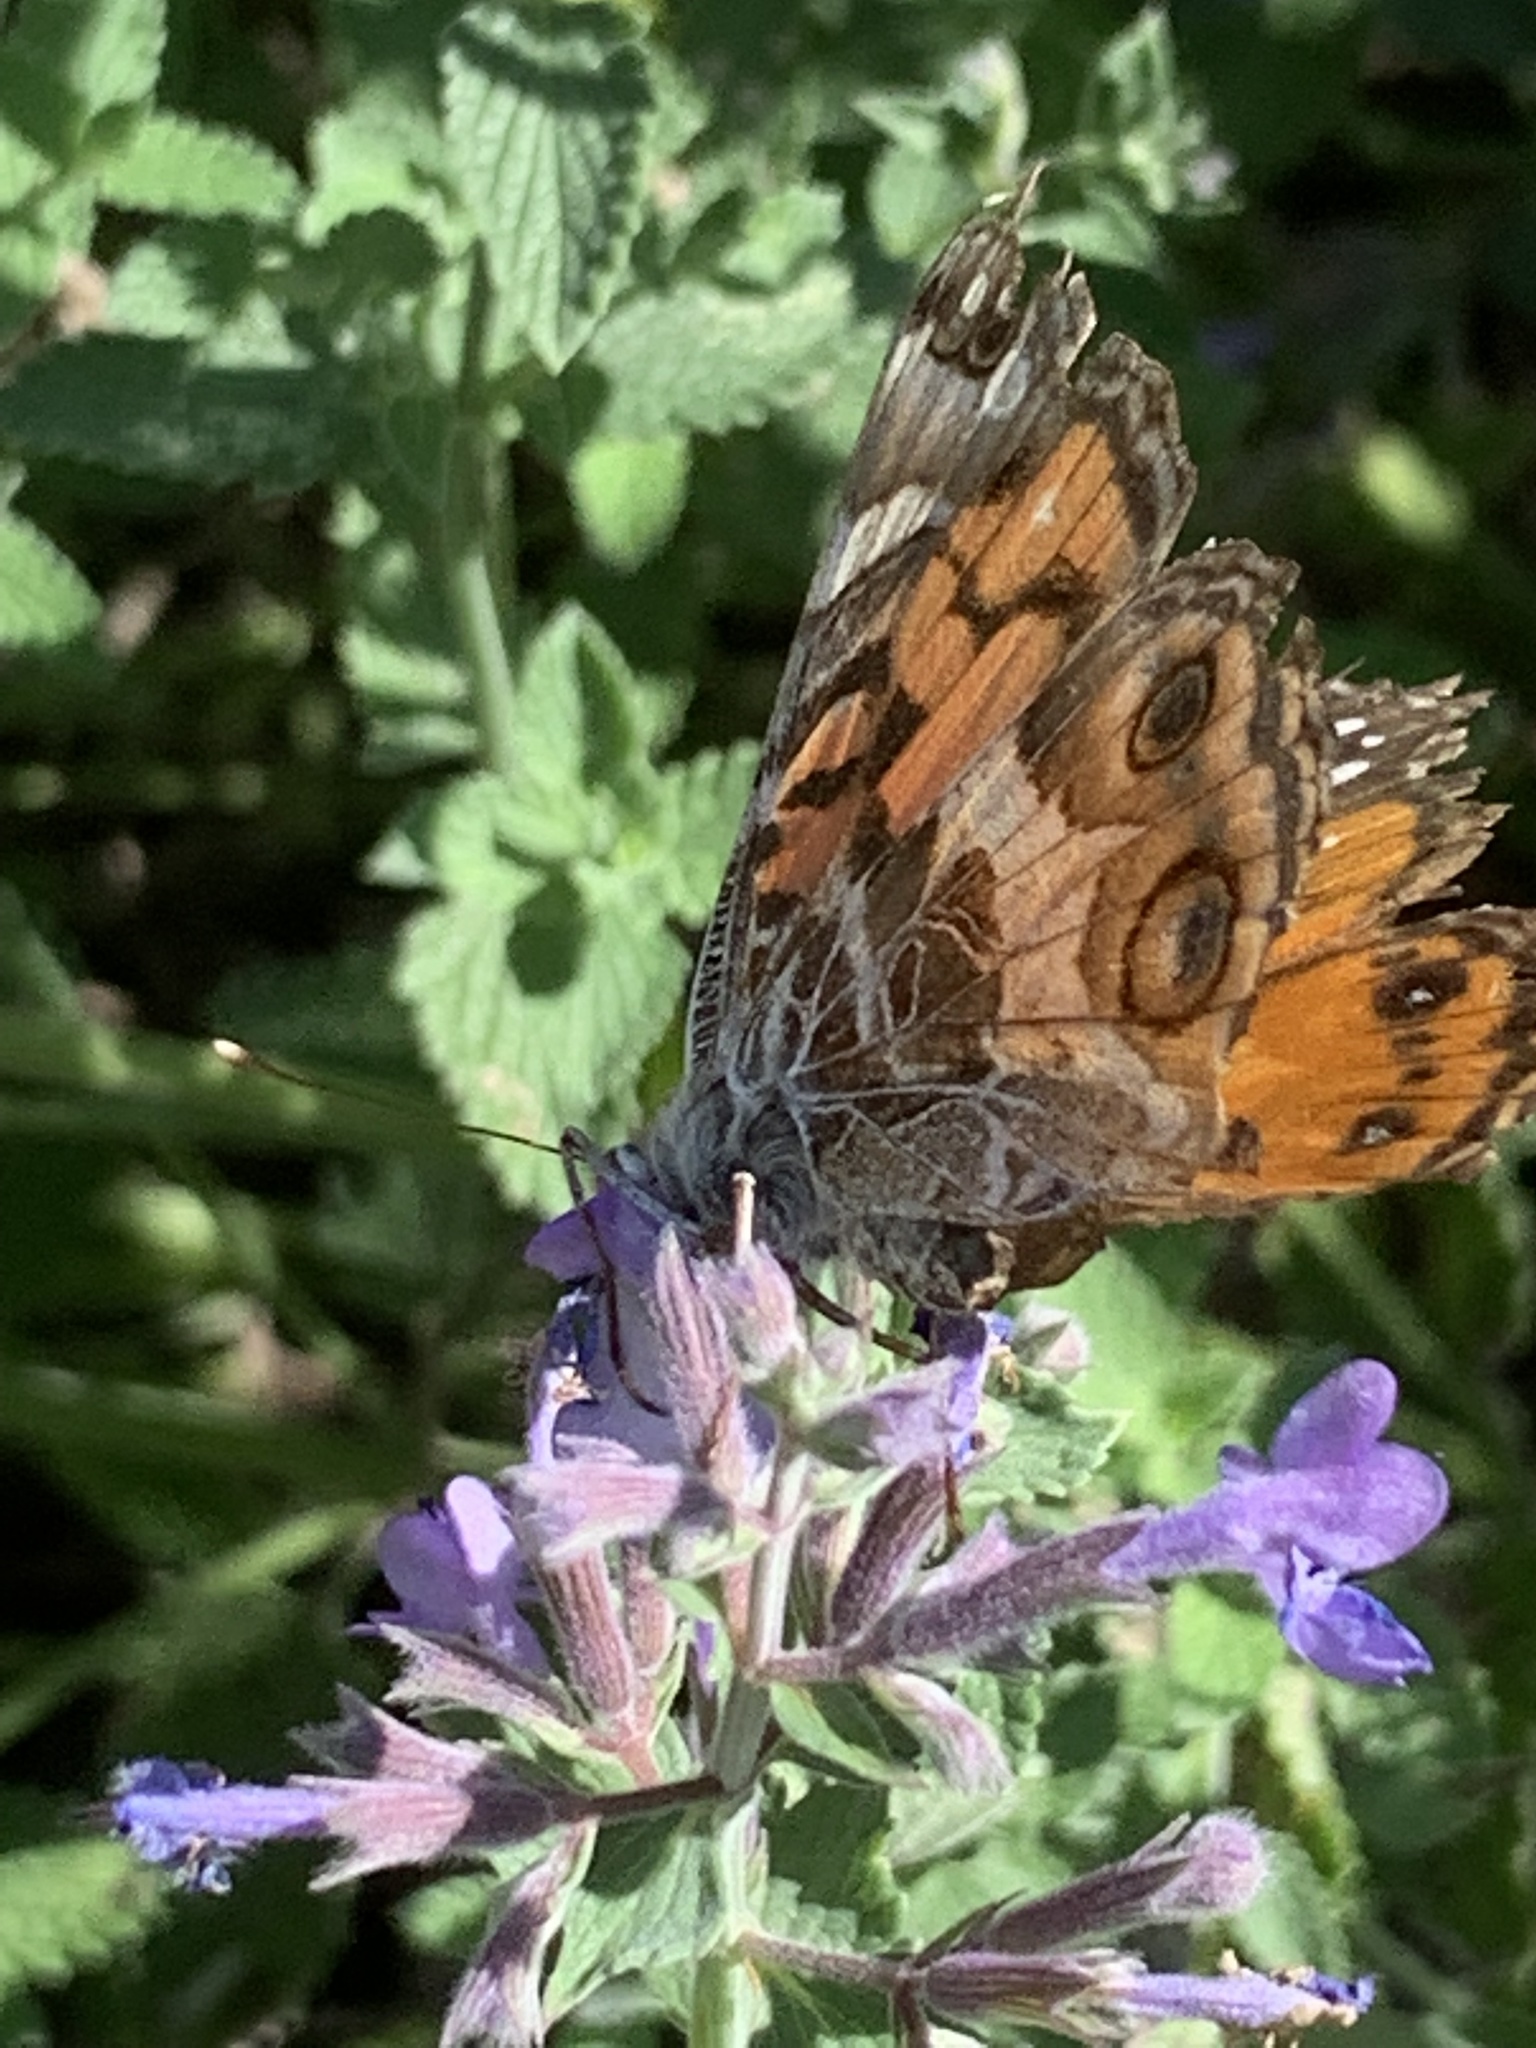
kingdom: Animalia
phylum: Arthropoda
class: Insecta
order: Lepidoptera
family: Nymphalidae
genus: Vanessa
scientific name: Vanessa virginiensis
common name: American lady
